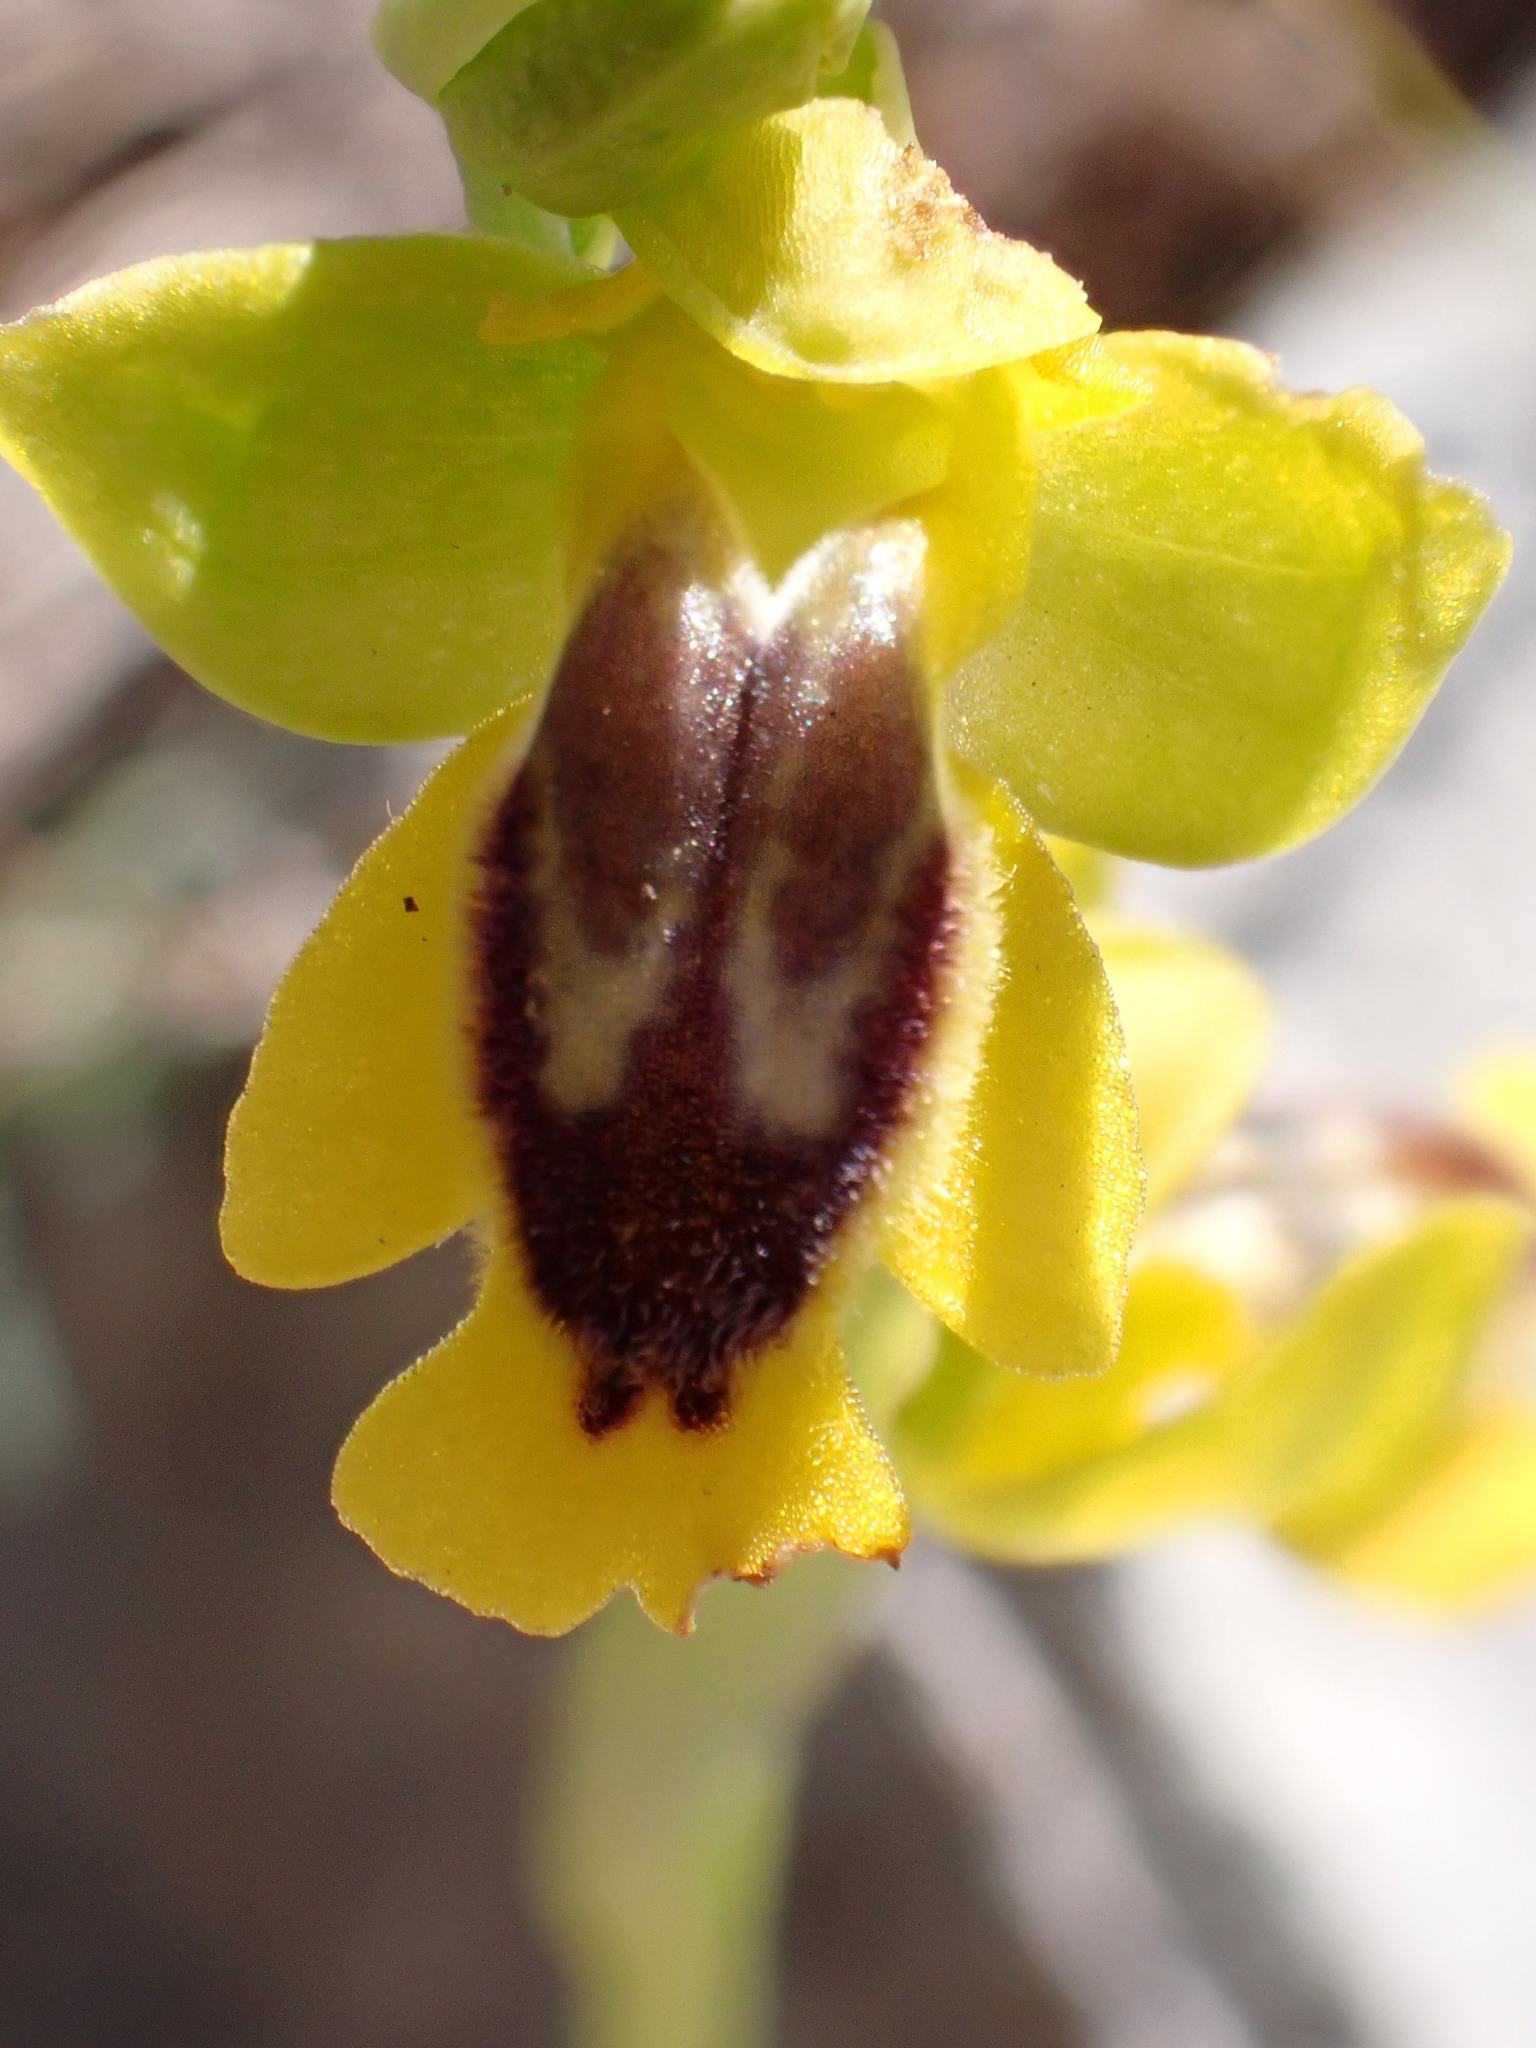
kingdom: Plantae
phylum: Tracheophyta
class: Liliopsida
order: Asparagales
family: Orchidaceae
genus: Ophrys
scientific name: Ophrys lutea
